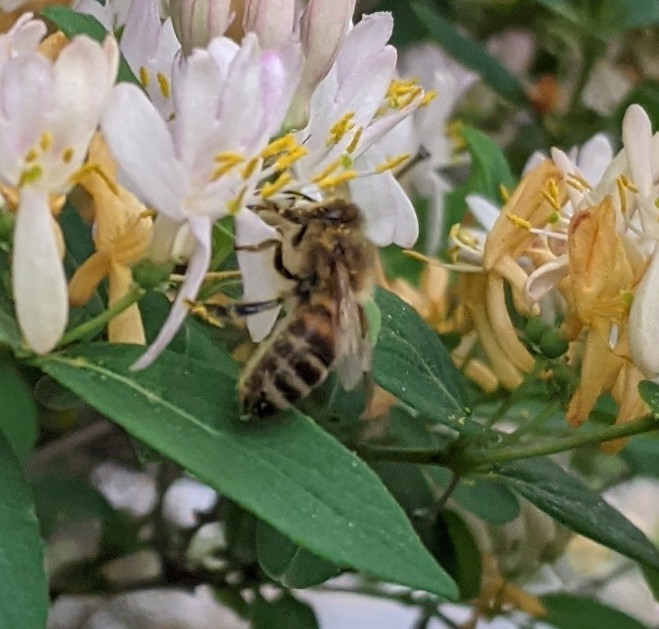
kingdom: Animalia
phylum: Arthropoda
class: Insecta
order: Hymenoptera
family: Apidae
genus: Apis
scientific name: Apis mellifera
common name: Honey bee
